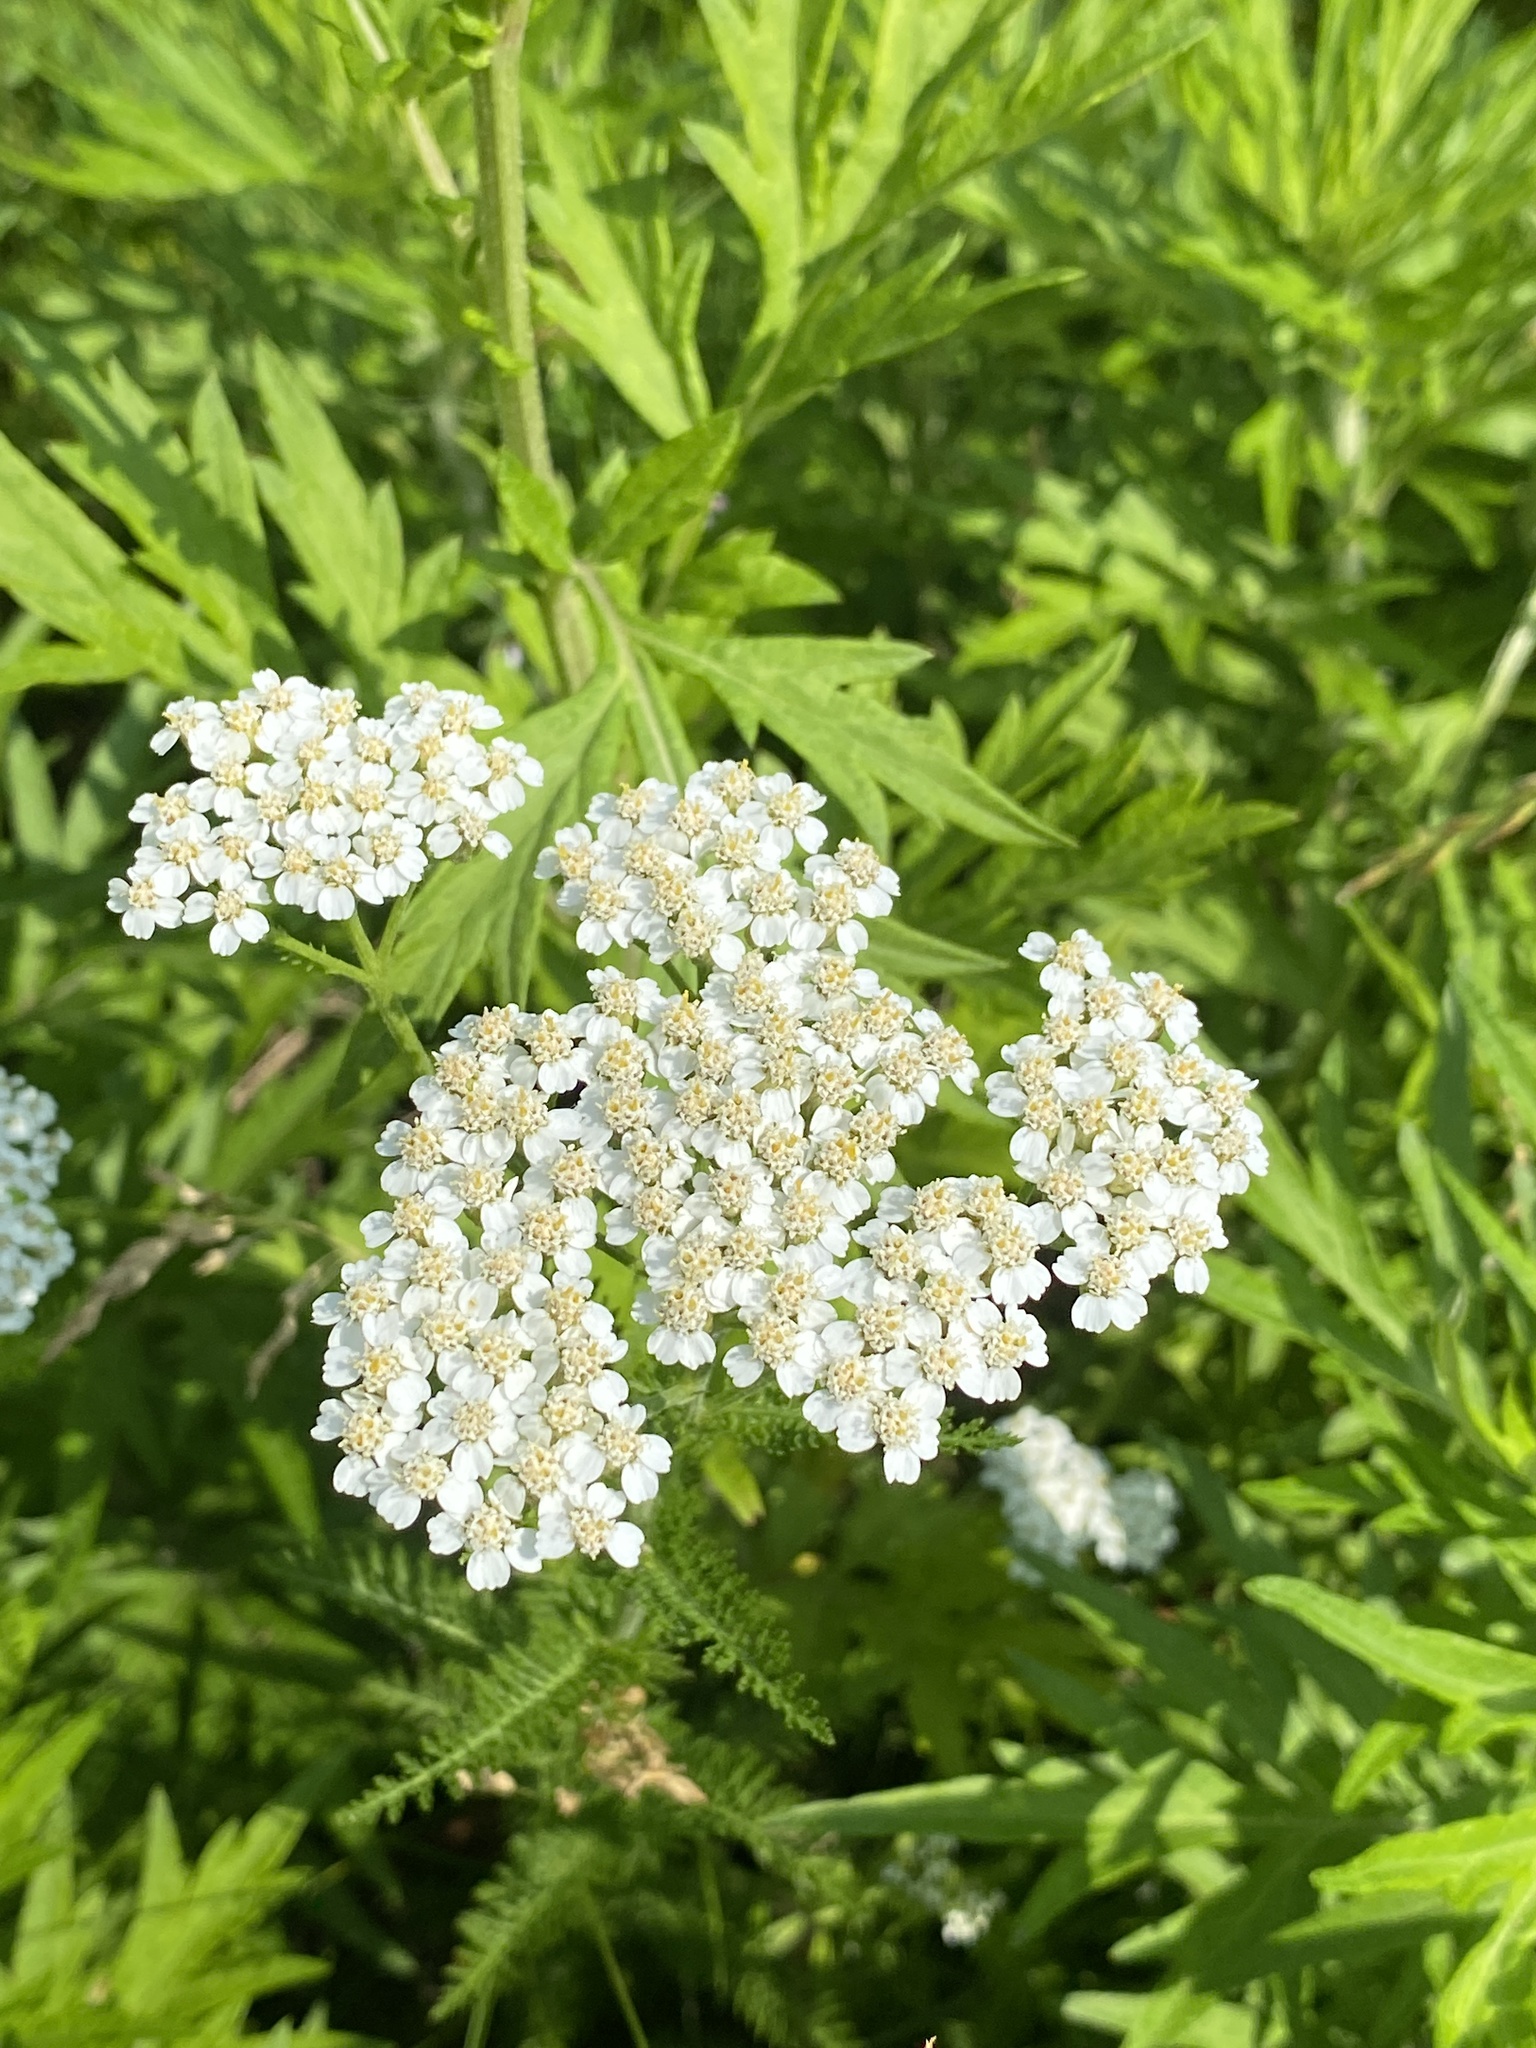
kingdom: Plantae
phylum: Tracheophyta
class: Magnoliopsida
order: Asterales
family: Asteraceae
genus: Achillea
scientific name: Achillea millefolium
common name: Yarrow
